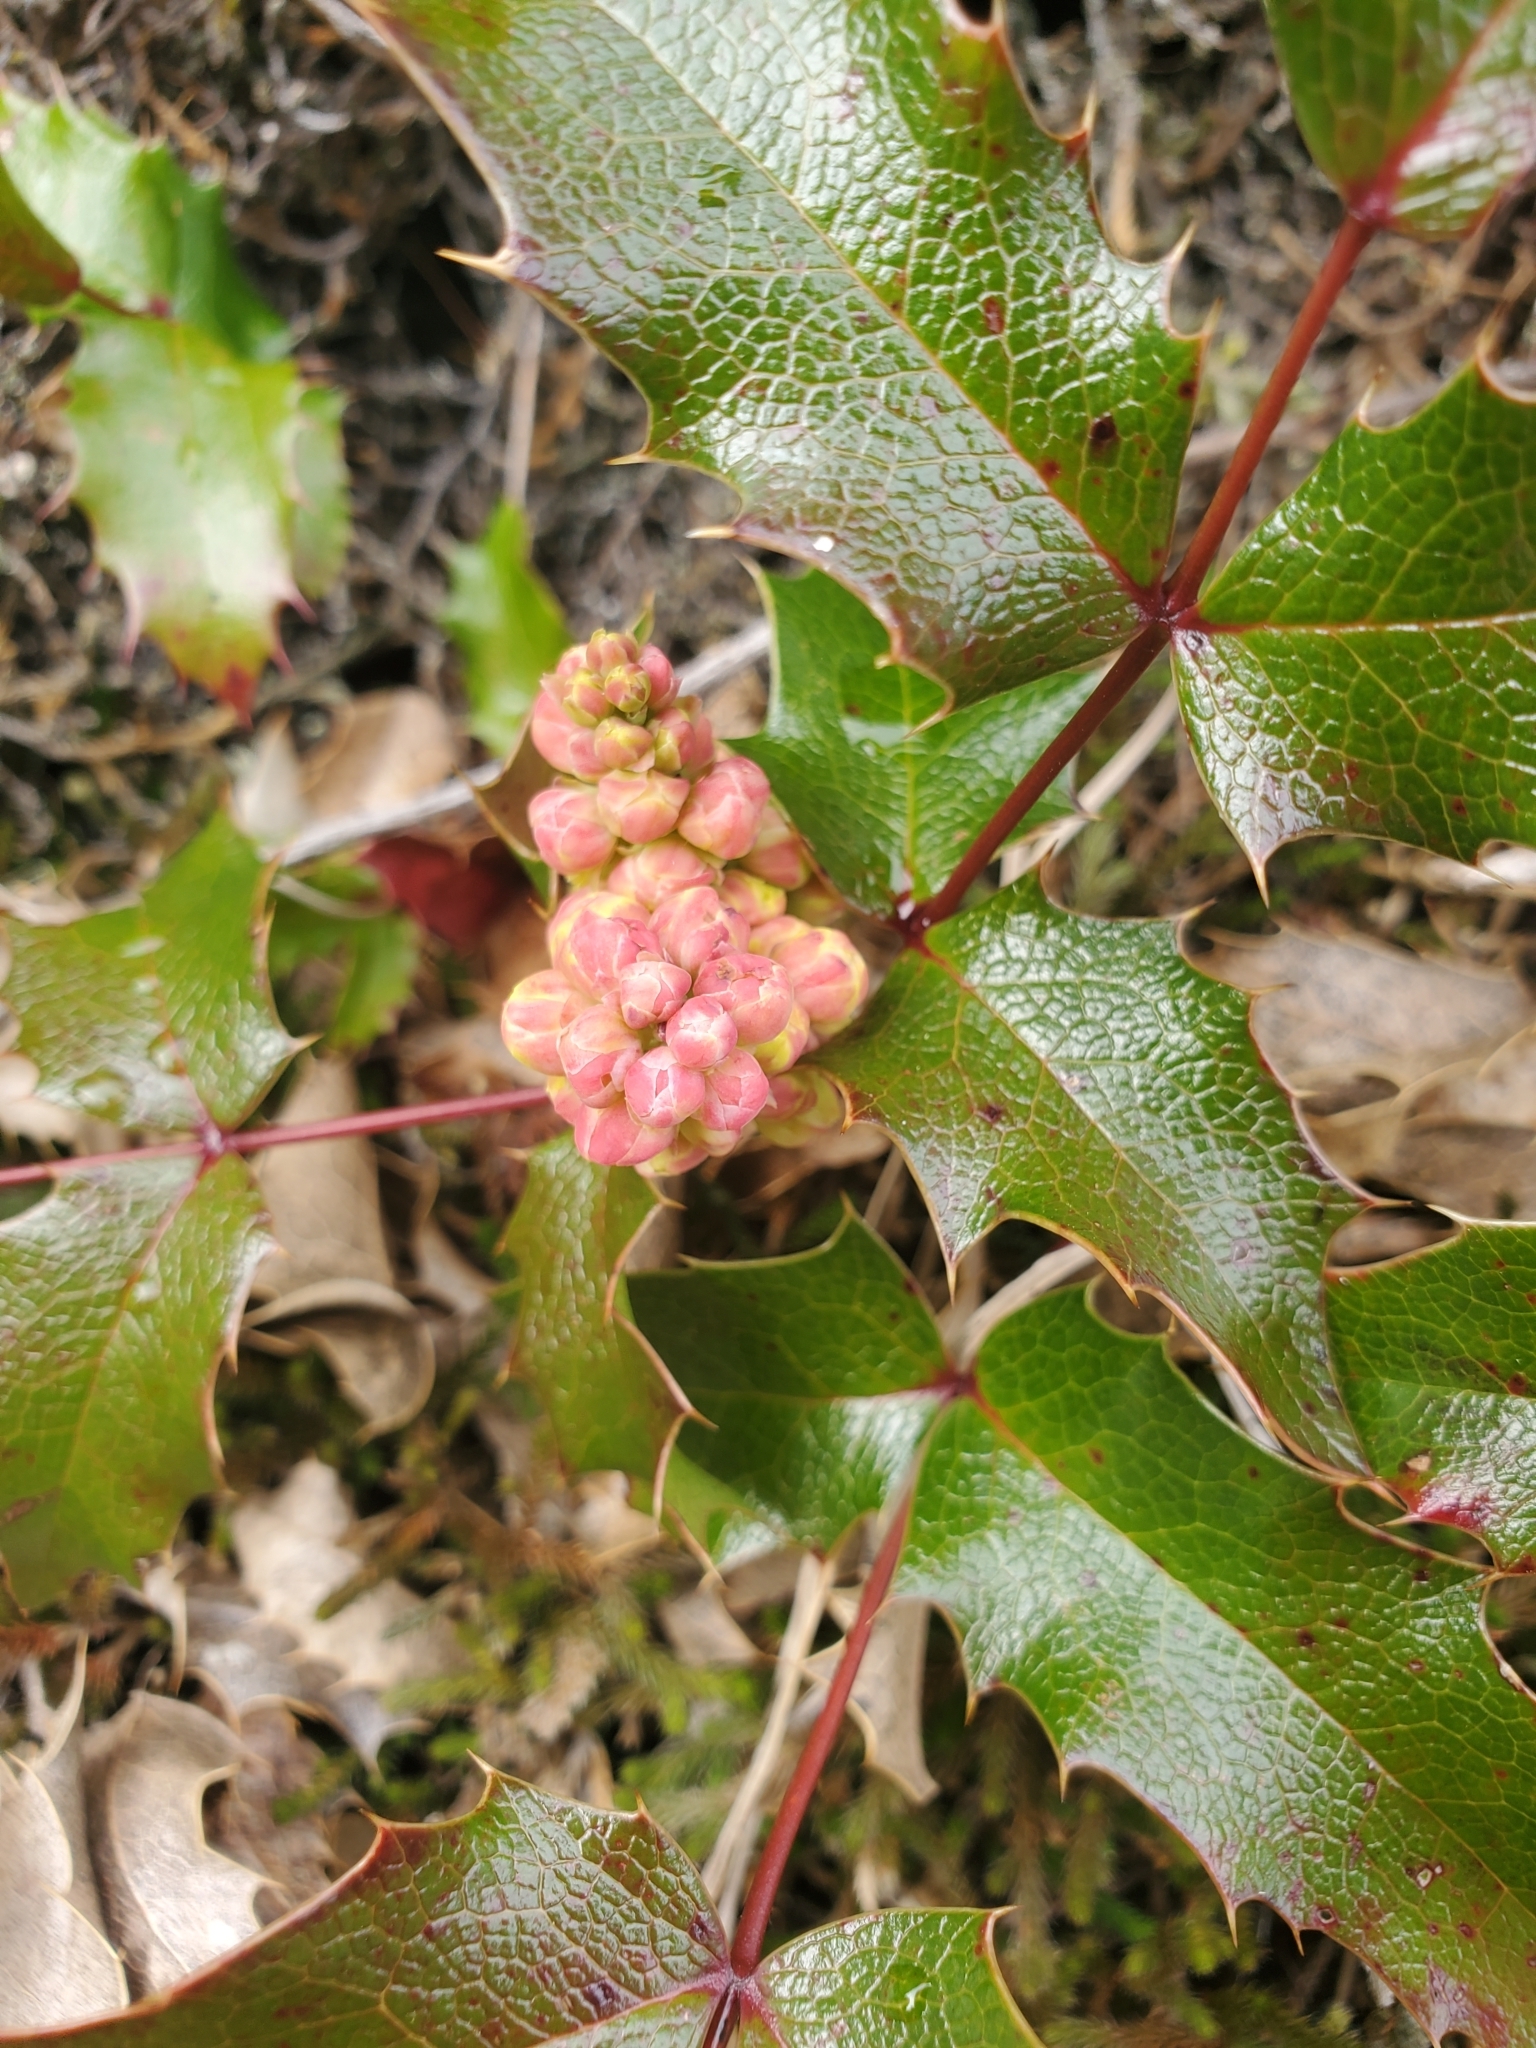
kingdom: Plantae
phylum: Tracheophyta
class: Magnoliopsida
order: Ranunculales
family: Berberidaceae
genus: Mahonia
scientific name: Mahonia aquifolium
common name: Oregon-grape
